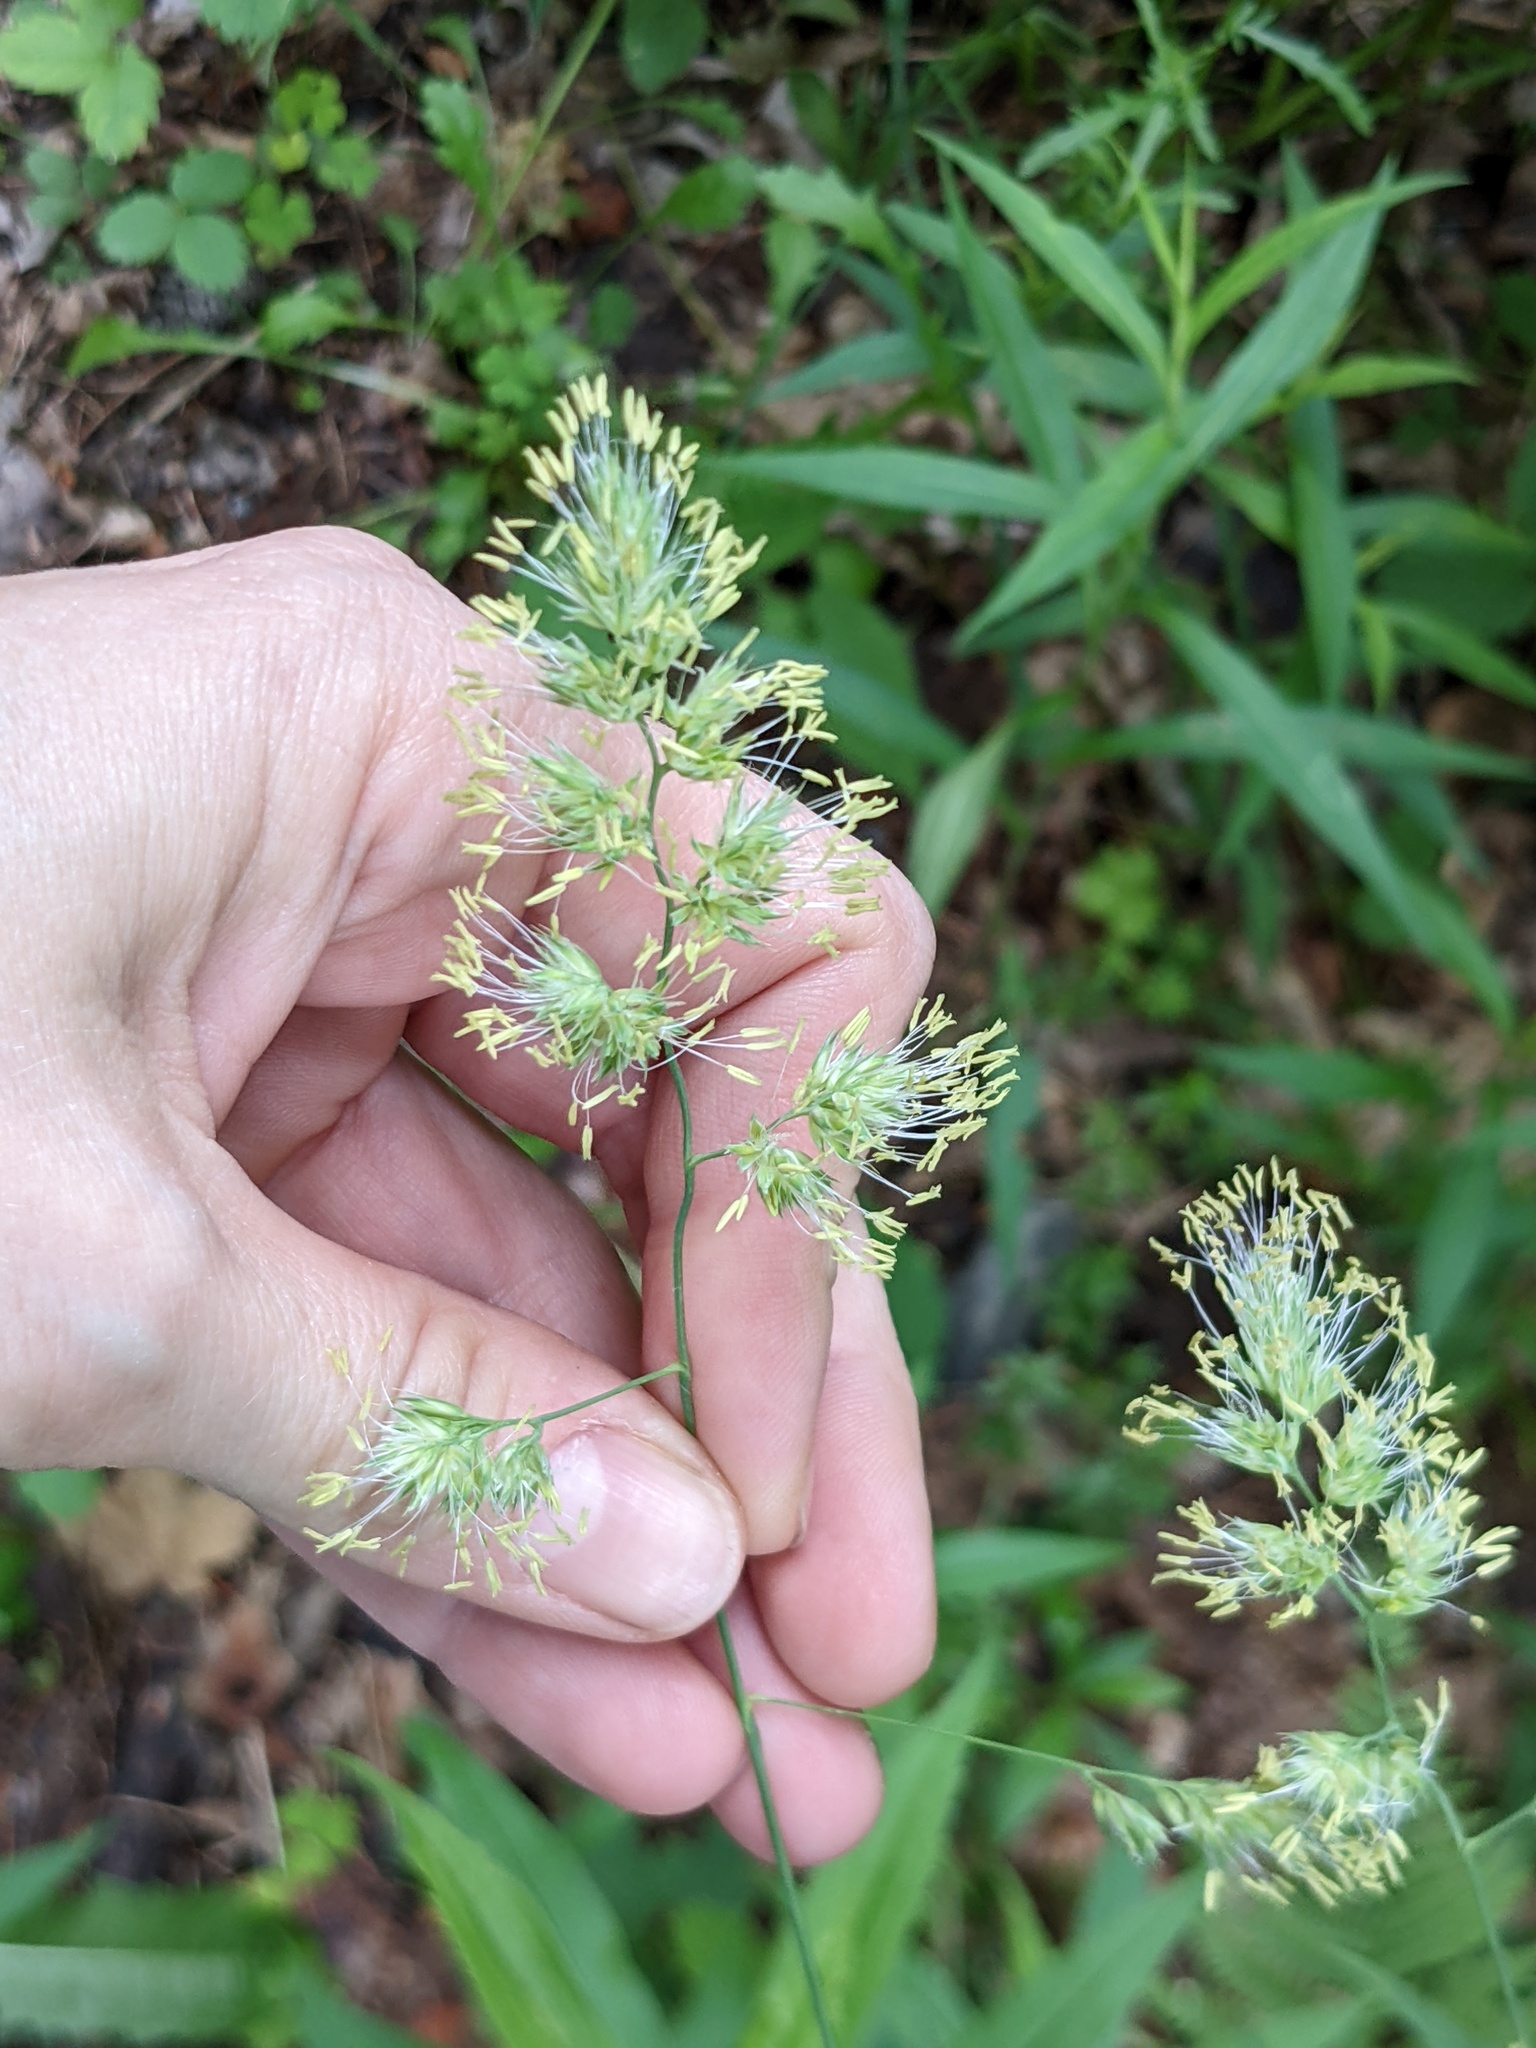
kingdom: Plantae
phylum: Tracheophyta
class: Liliopsida
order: Poales
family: Poaceae
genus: Dactylis
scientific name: Dactylis glomerata
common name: Orchardgrass
